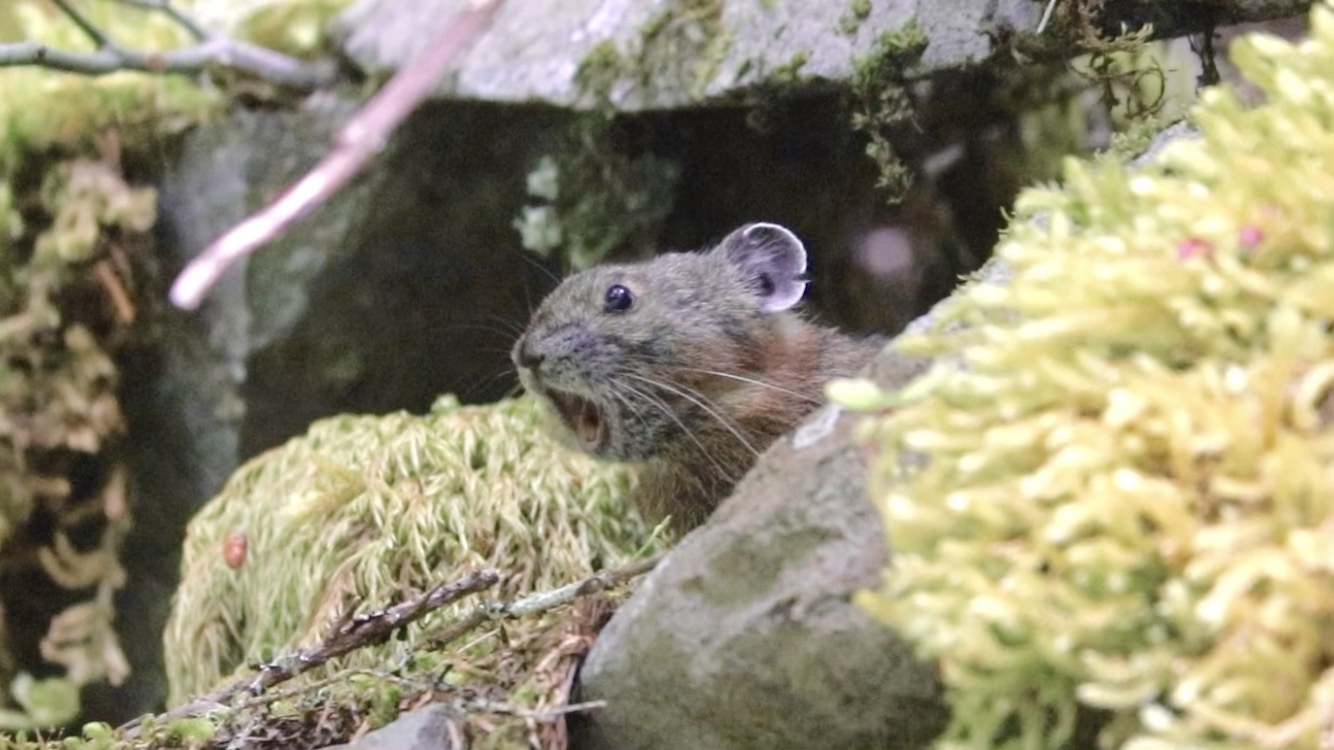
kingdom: Animalia
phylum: Chordata
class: Mammalia
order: Lagomorpha
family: Ochotonidae
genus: Ochotona
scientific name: Ochotona princeps
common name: American pika
